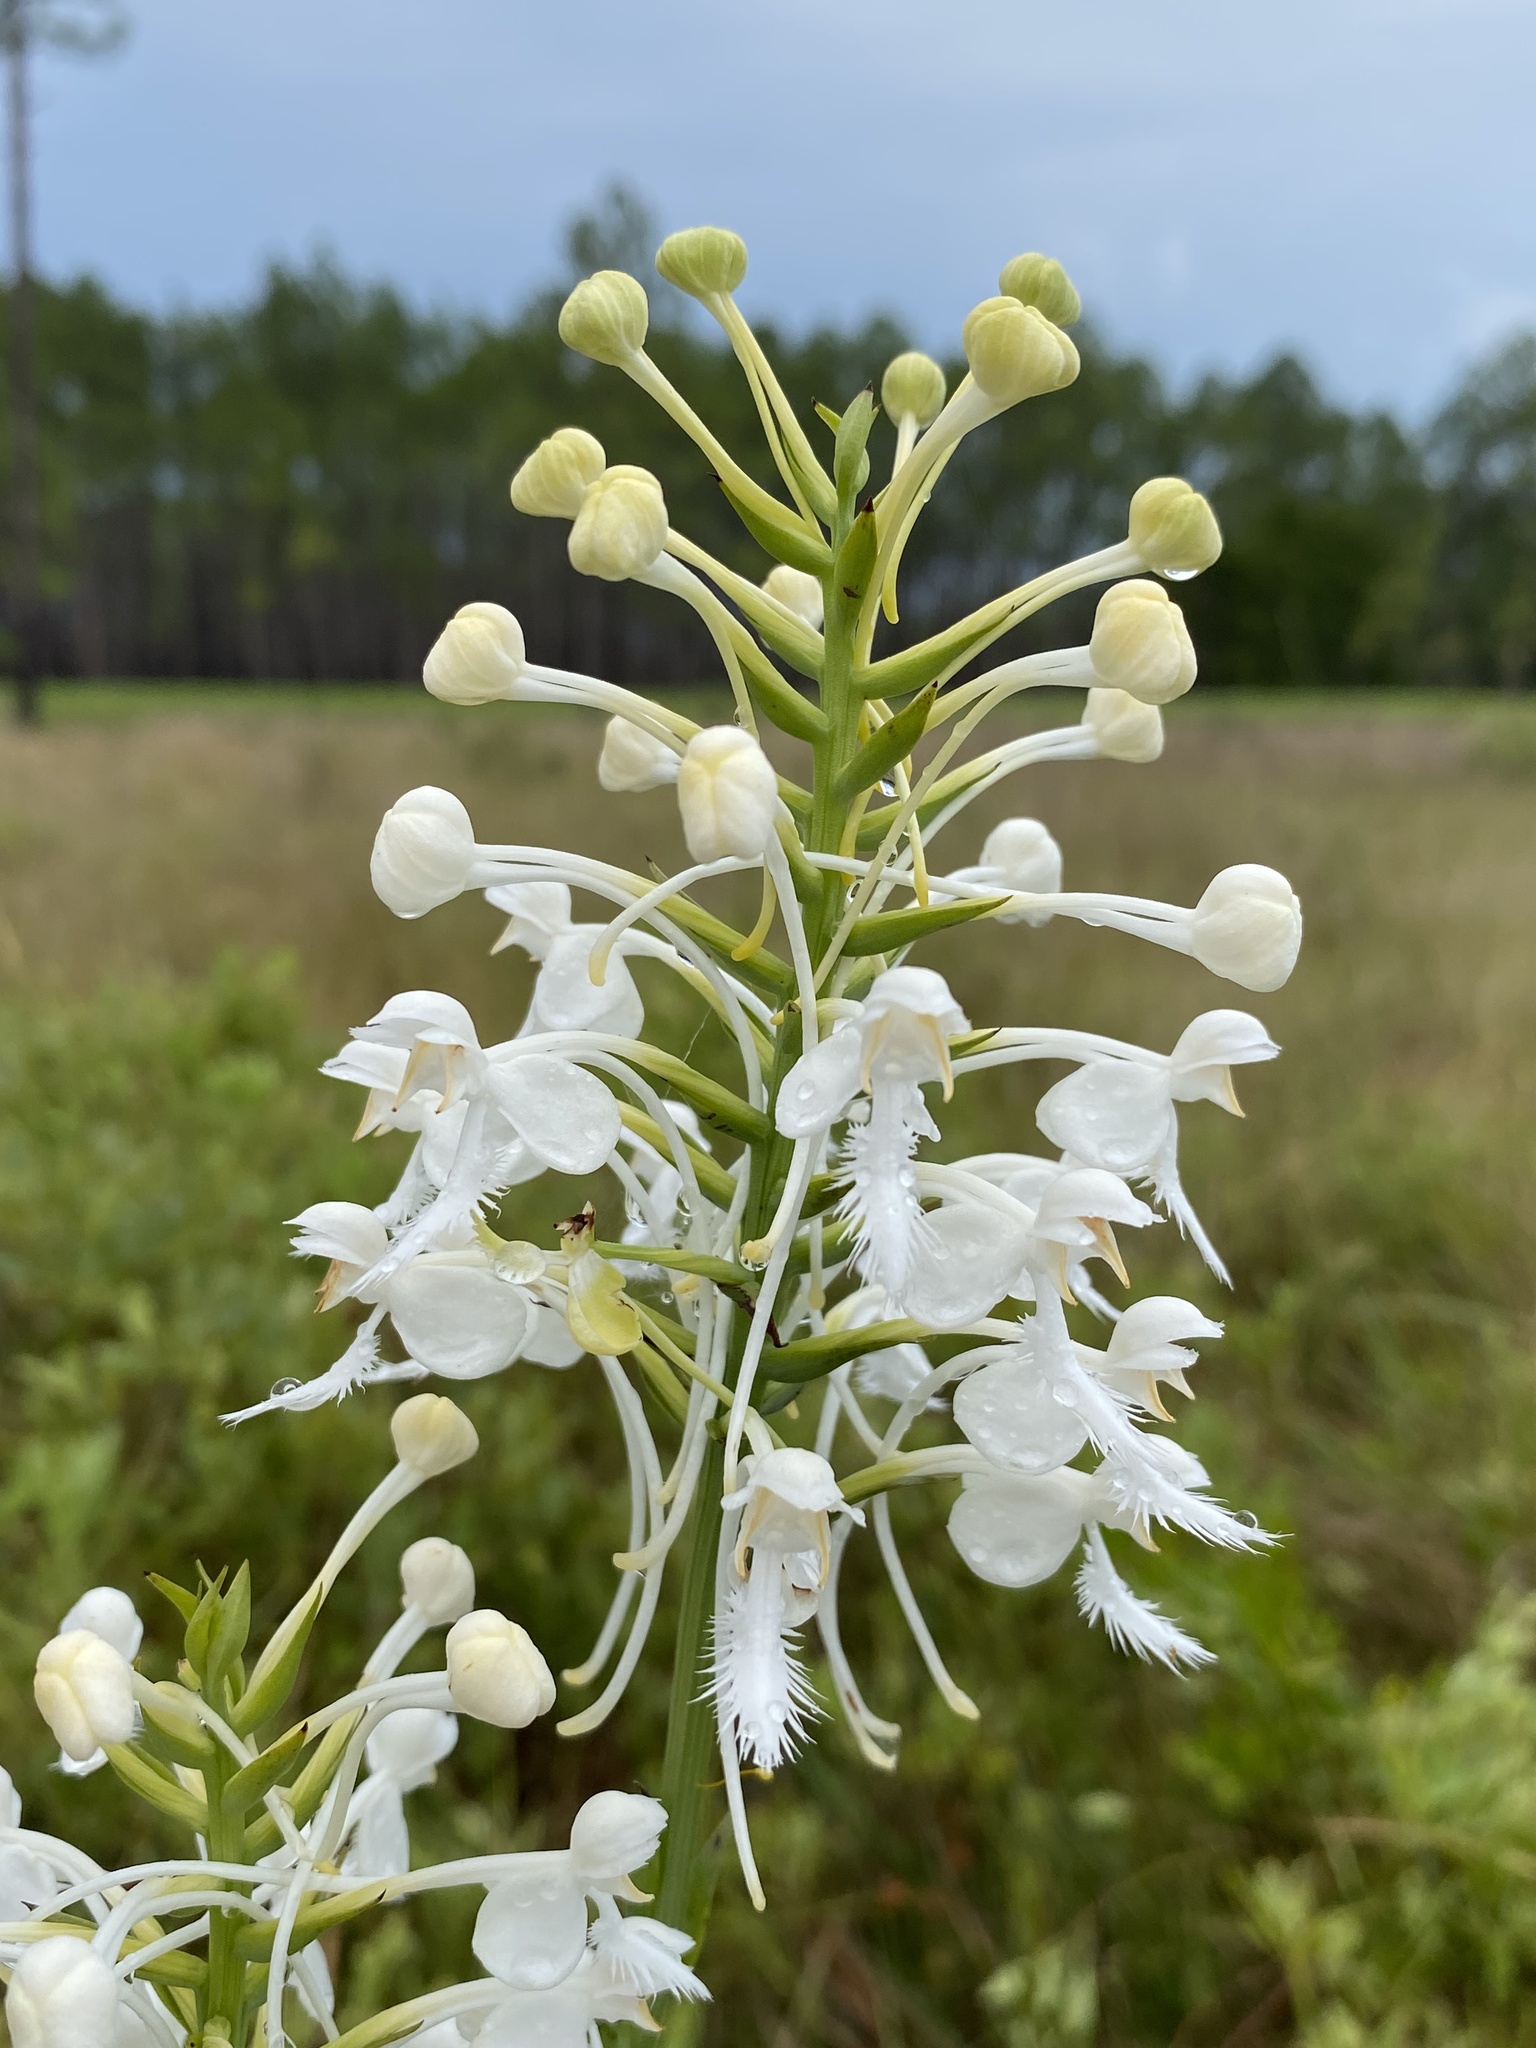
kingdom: Plantae
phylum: Tracheophyta
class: Liliopsida
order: Asparagales
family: Orchidaceae
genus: Platanthera
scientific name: Platanthera blephariglottis
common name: White fringed orchid
